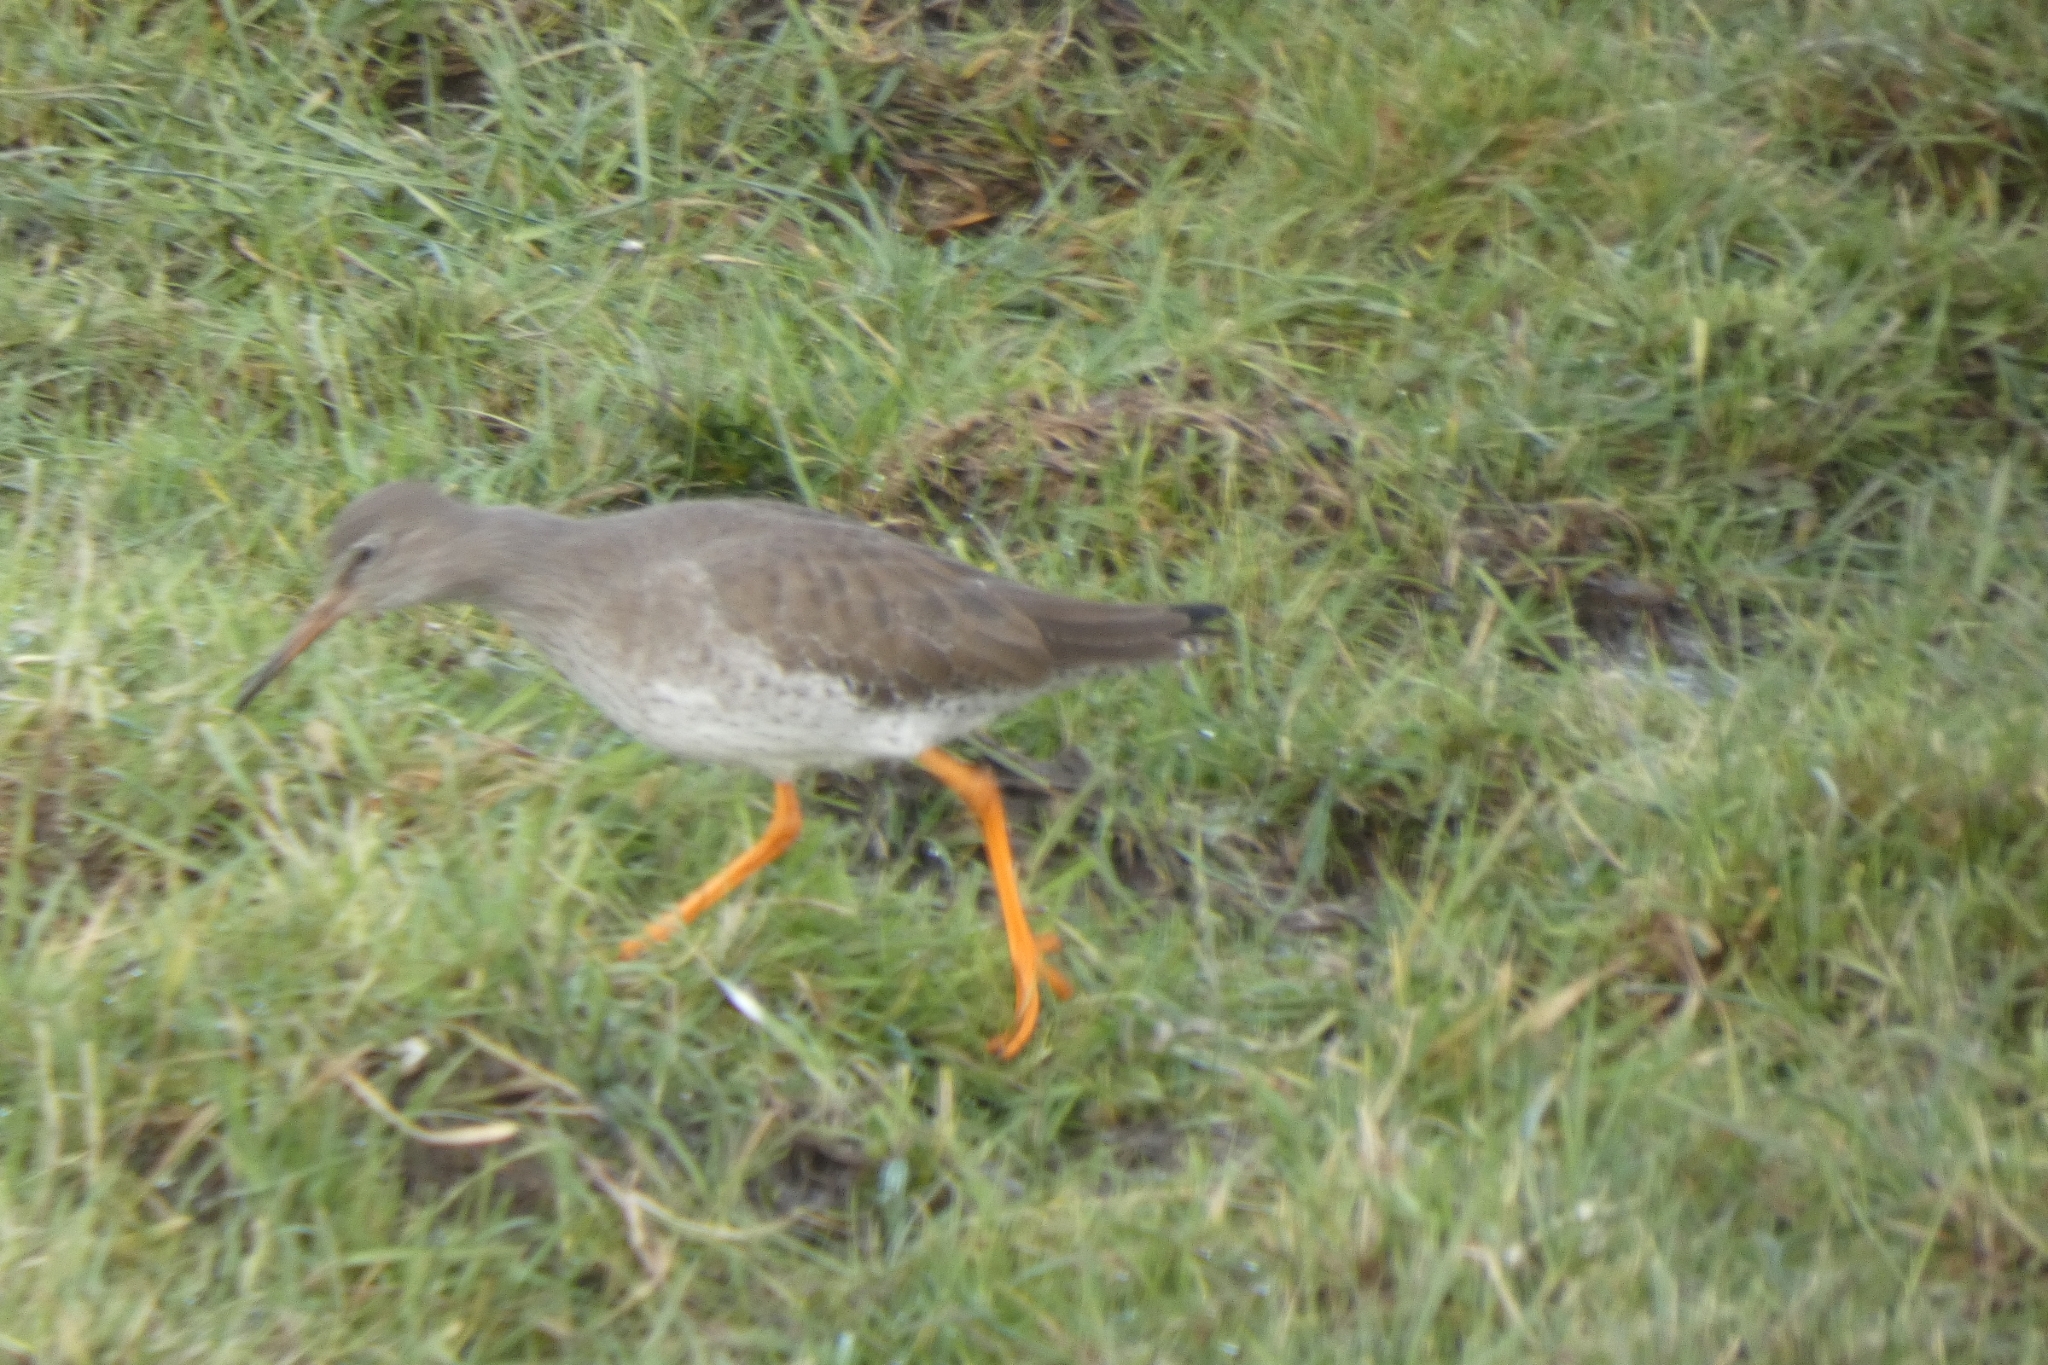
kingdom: Animalia
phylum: Chordata
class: Aves
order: Charadriiformes
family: Scolopacidae
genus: Tringa
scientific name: Tringa totanus
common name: Common redshank
